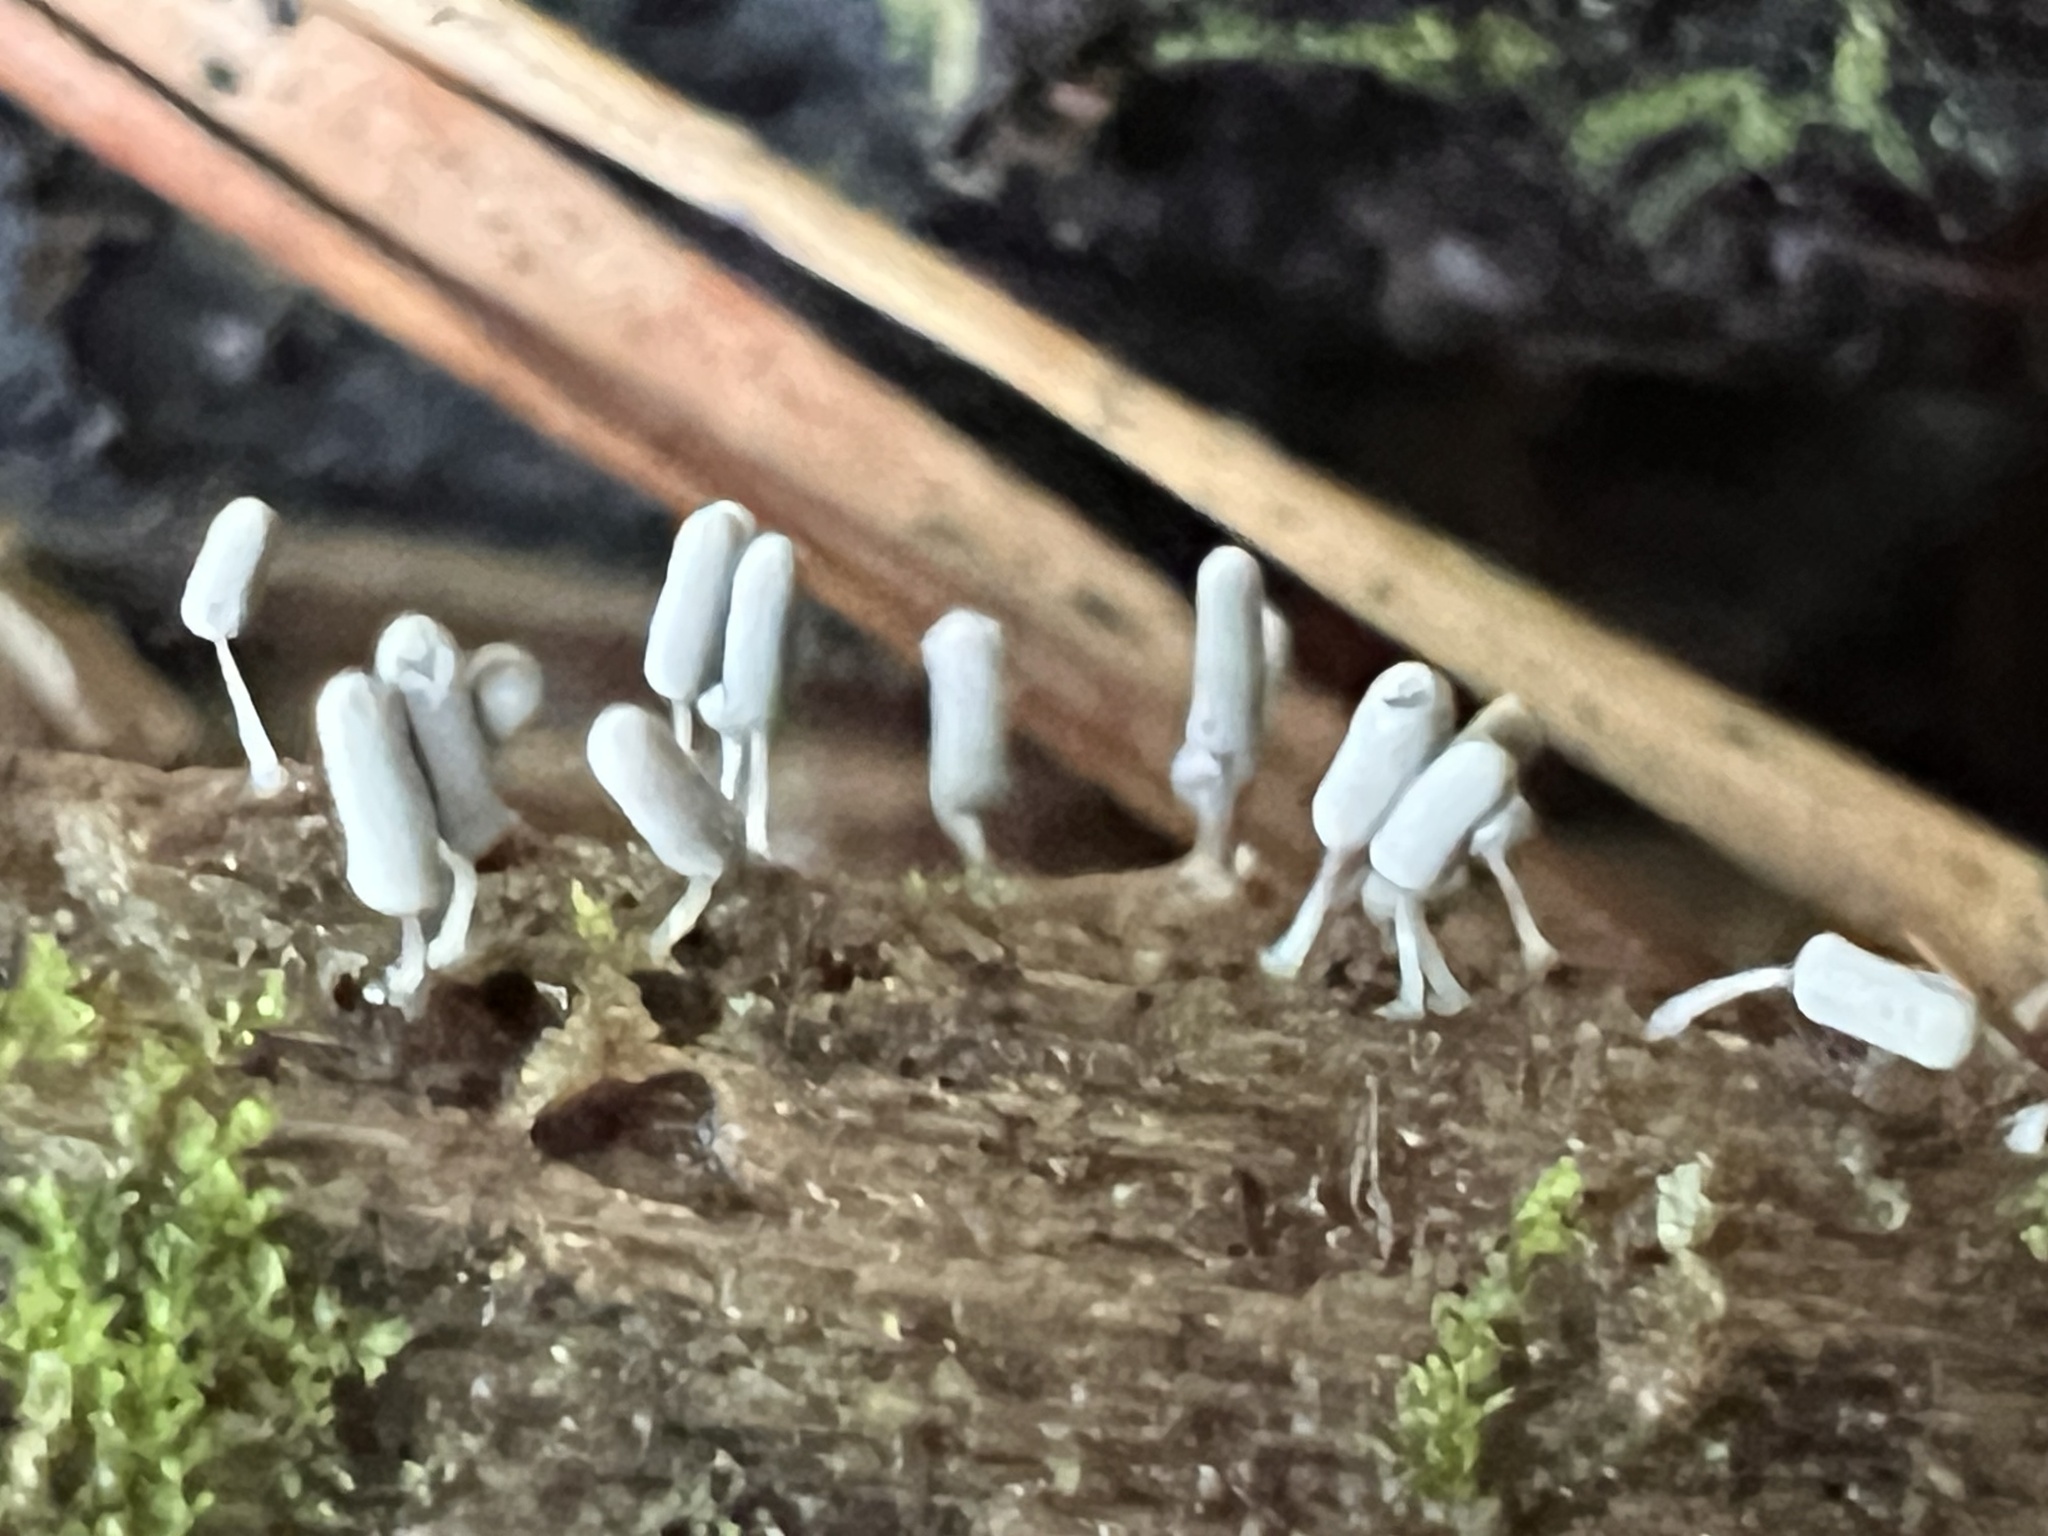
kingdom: Protozoa
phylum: Mycetozoa
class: Myxomycetes
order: Trichiales
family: Arcyriaceae
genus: Arcyria
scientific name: Arcyria cinerea
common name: White carnival candy slime mold
